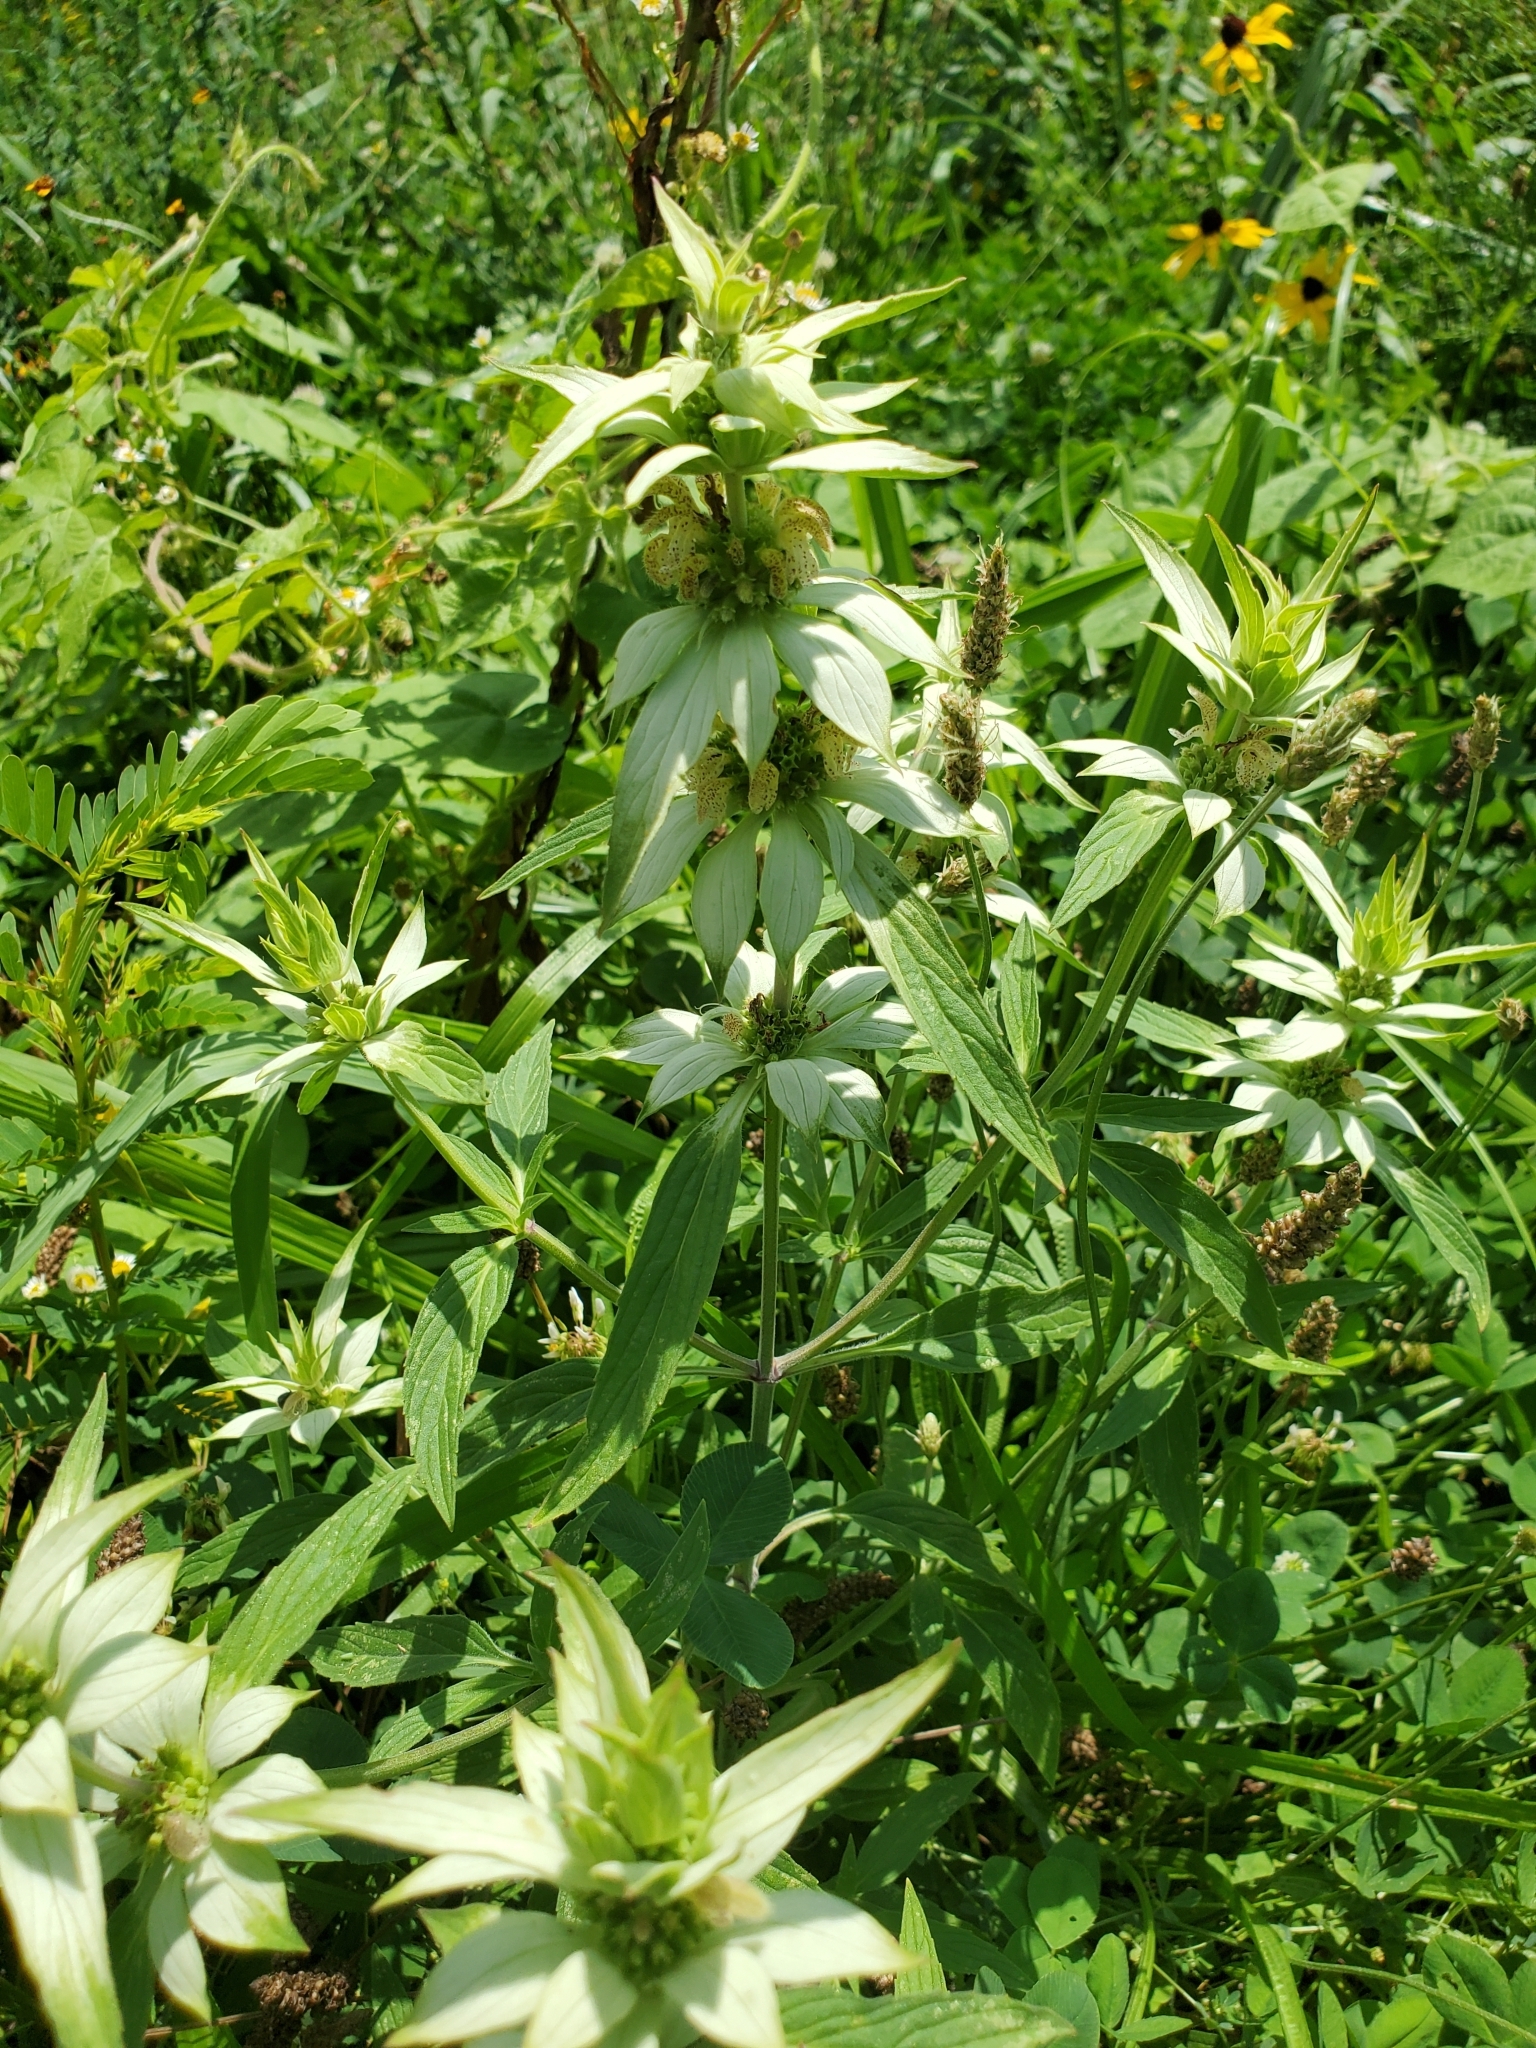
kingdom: Plantae
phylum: Tracheophyta
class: Magnoliopsida
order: Lamiales
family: Lamiaceae
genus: Monarda
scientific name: Monarda punctata
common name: Dotted monarda
